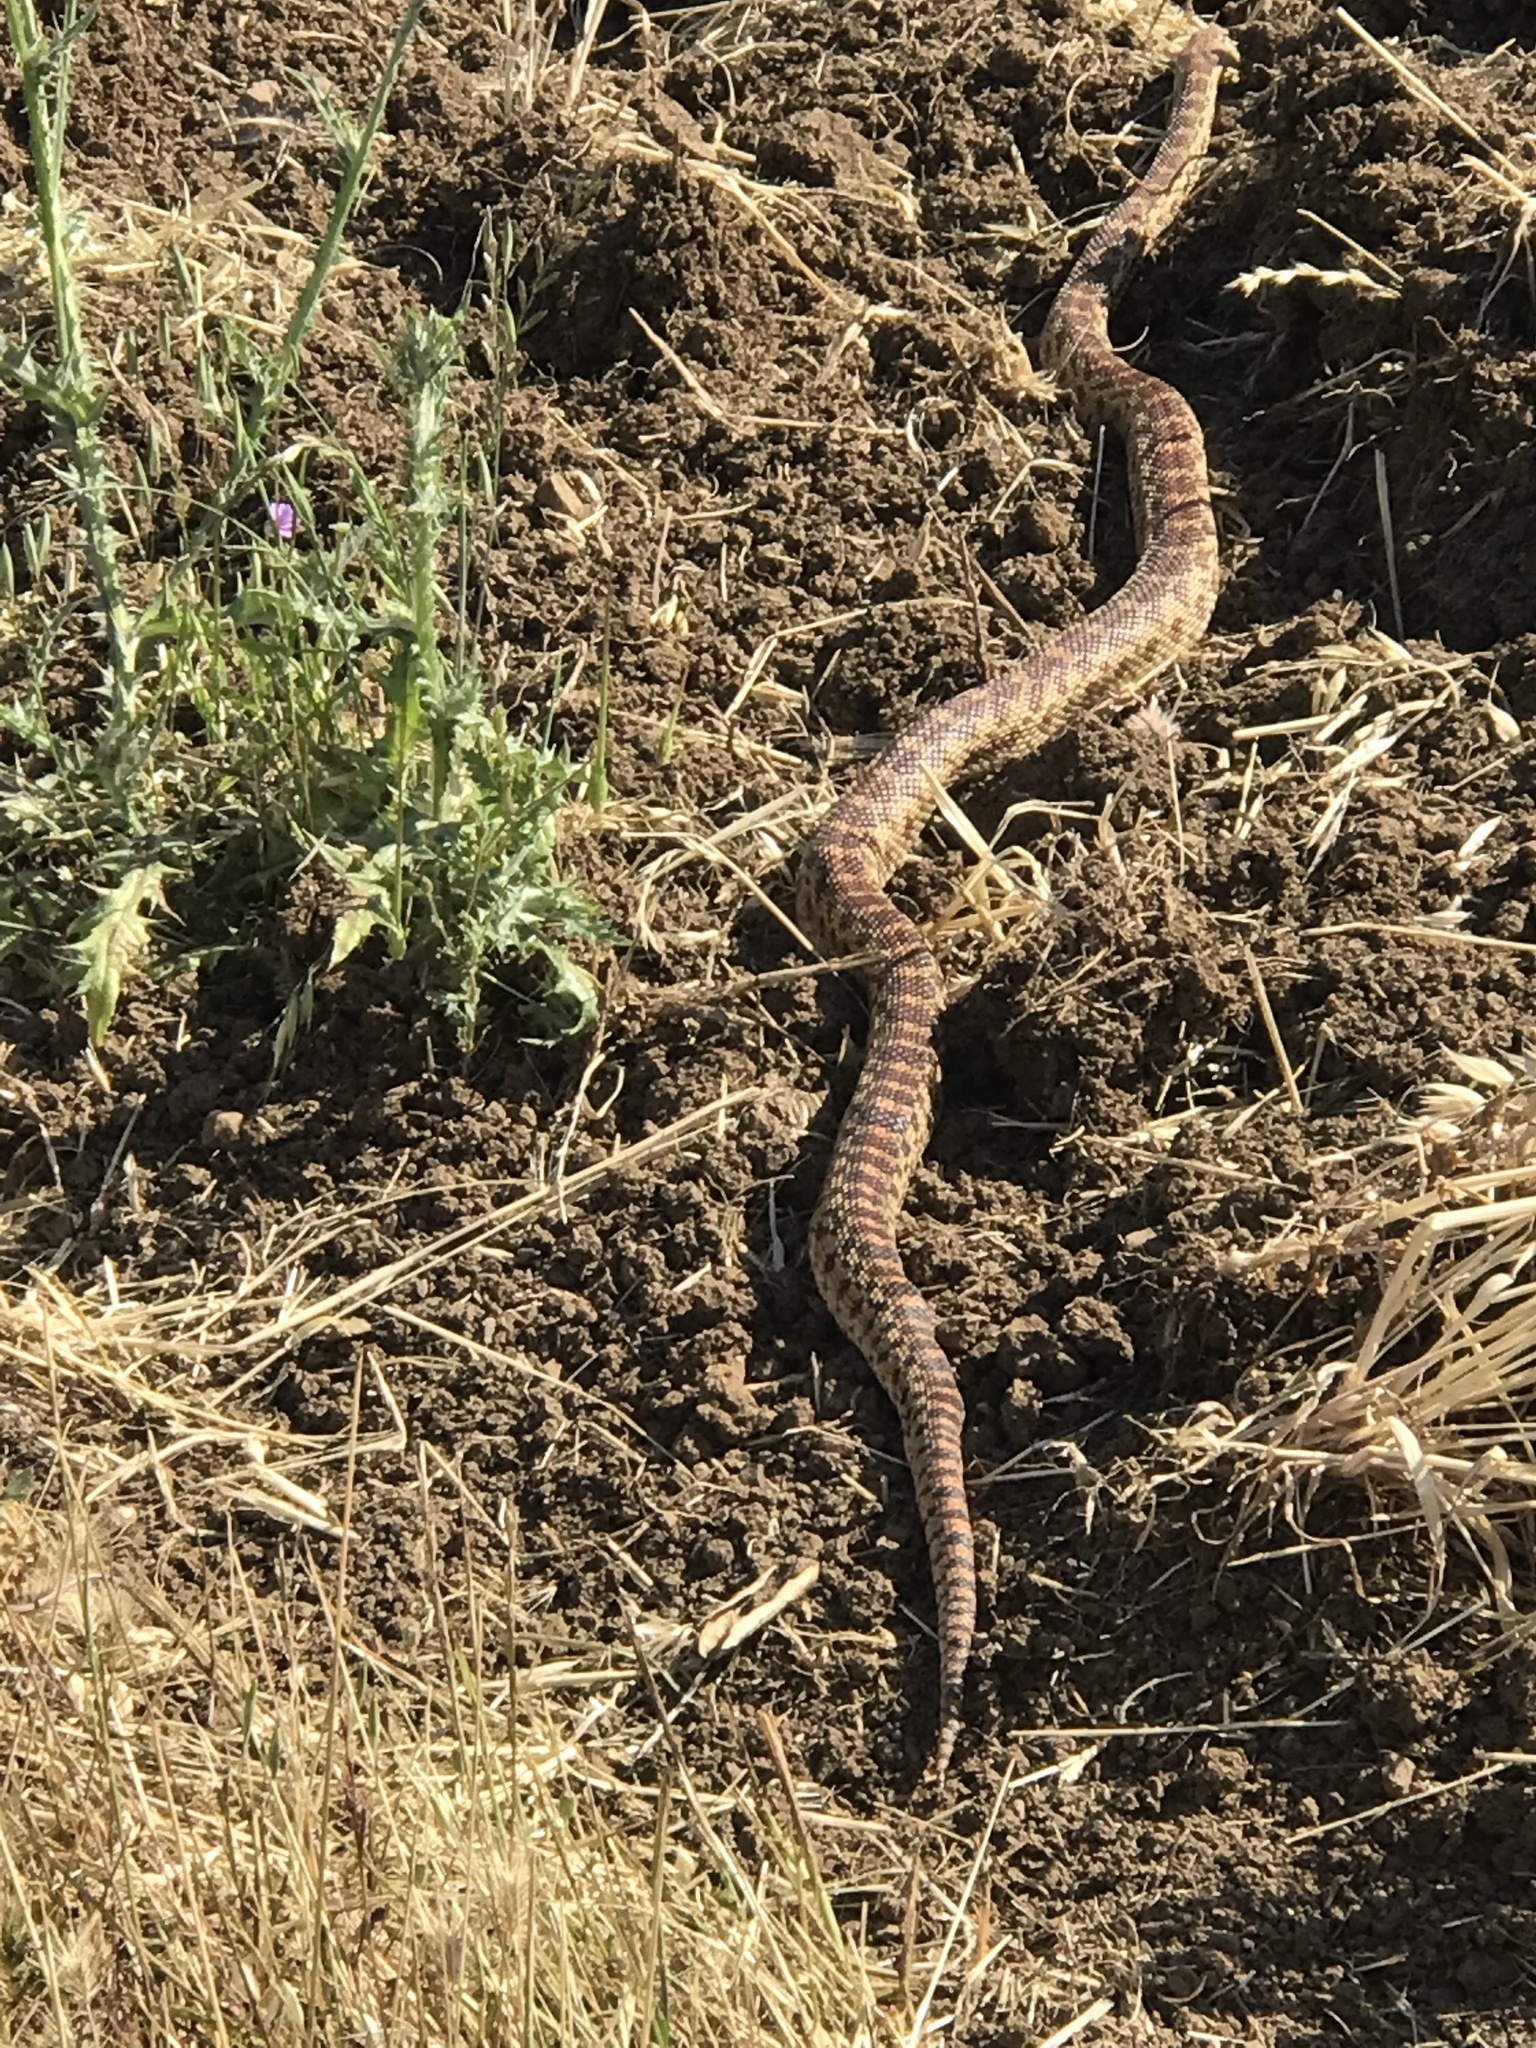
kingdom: Animalia
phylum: Chordata
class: Squamata
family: Colubridae
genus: Pituophis
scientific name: Pituophis catenifer
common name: Gopher snake
